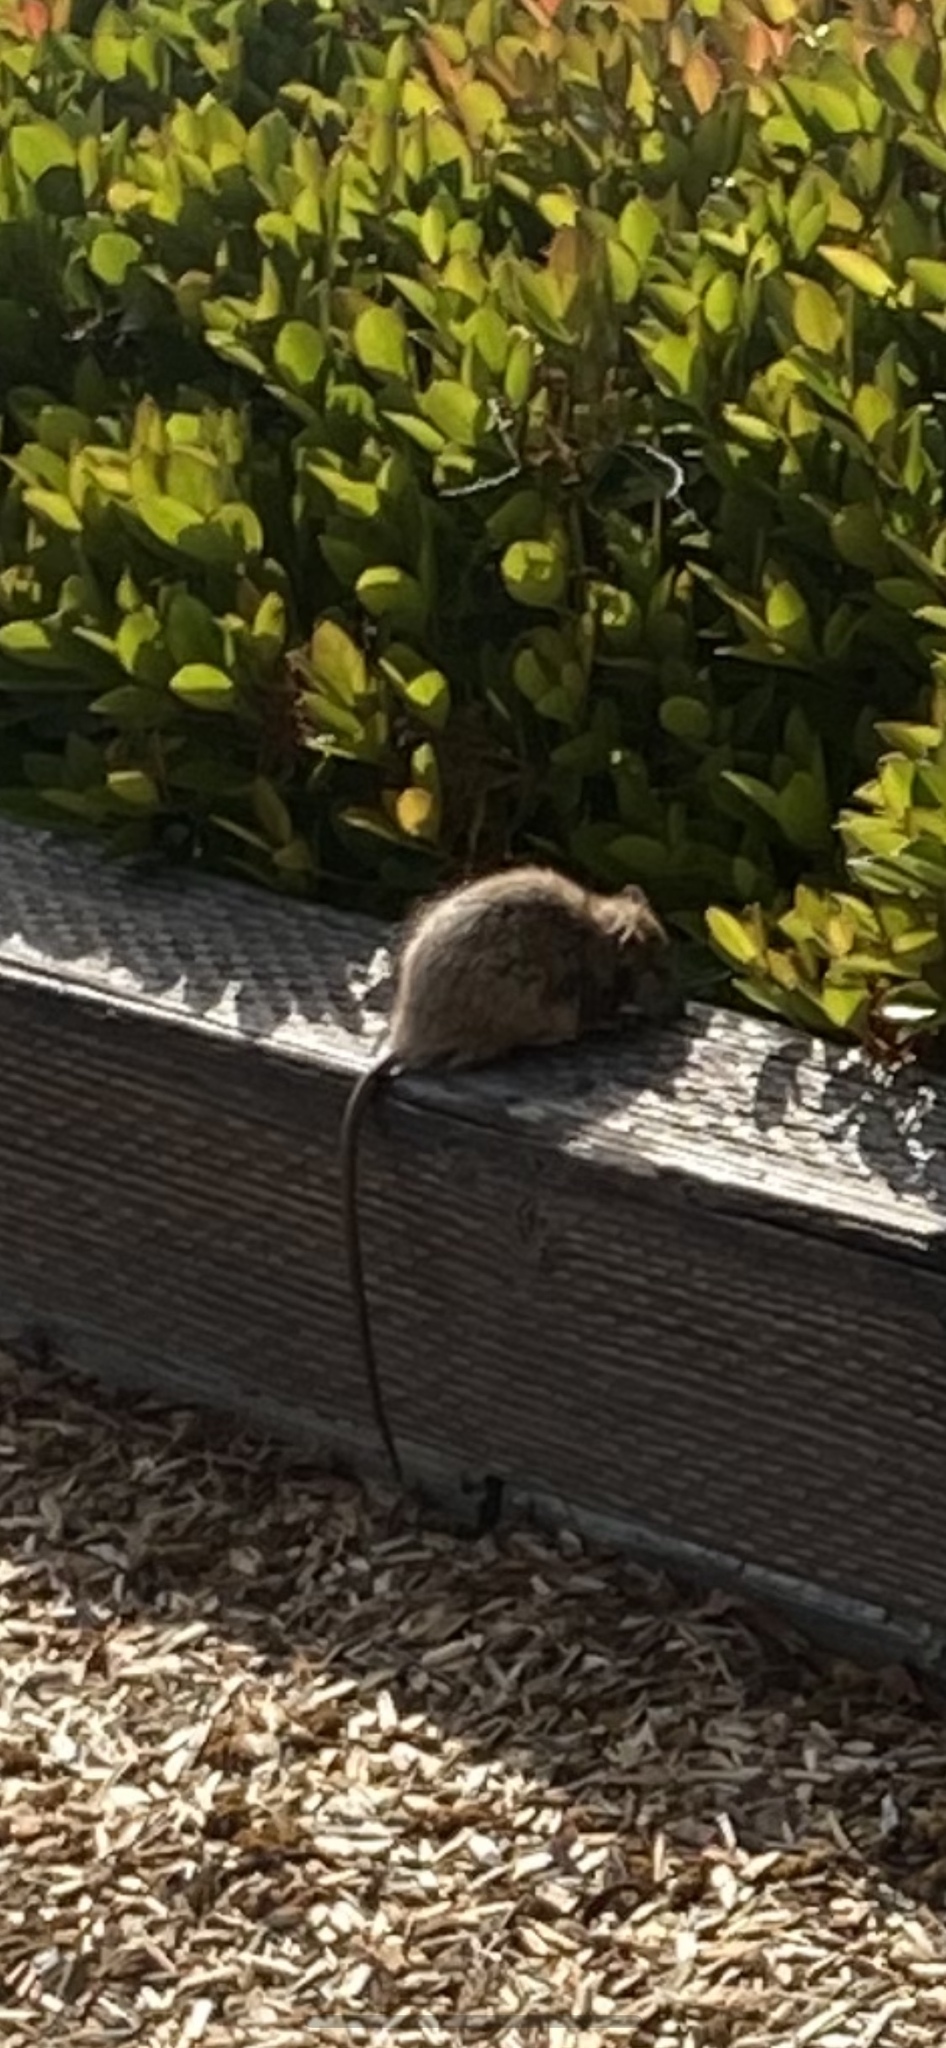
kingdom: Animalia
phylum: Chordata
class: Mammalia
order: Rodentia
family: Muridae
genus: Rattus
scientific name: Rattus rattus
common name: Black rat
